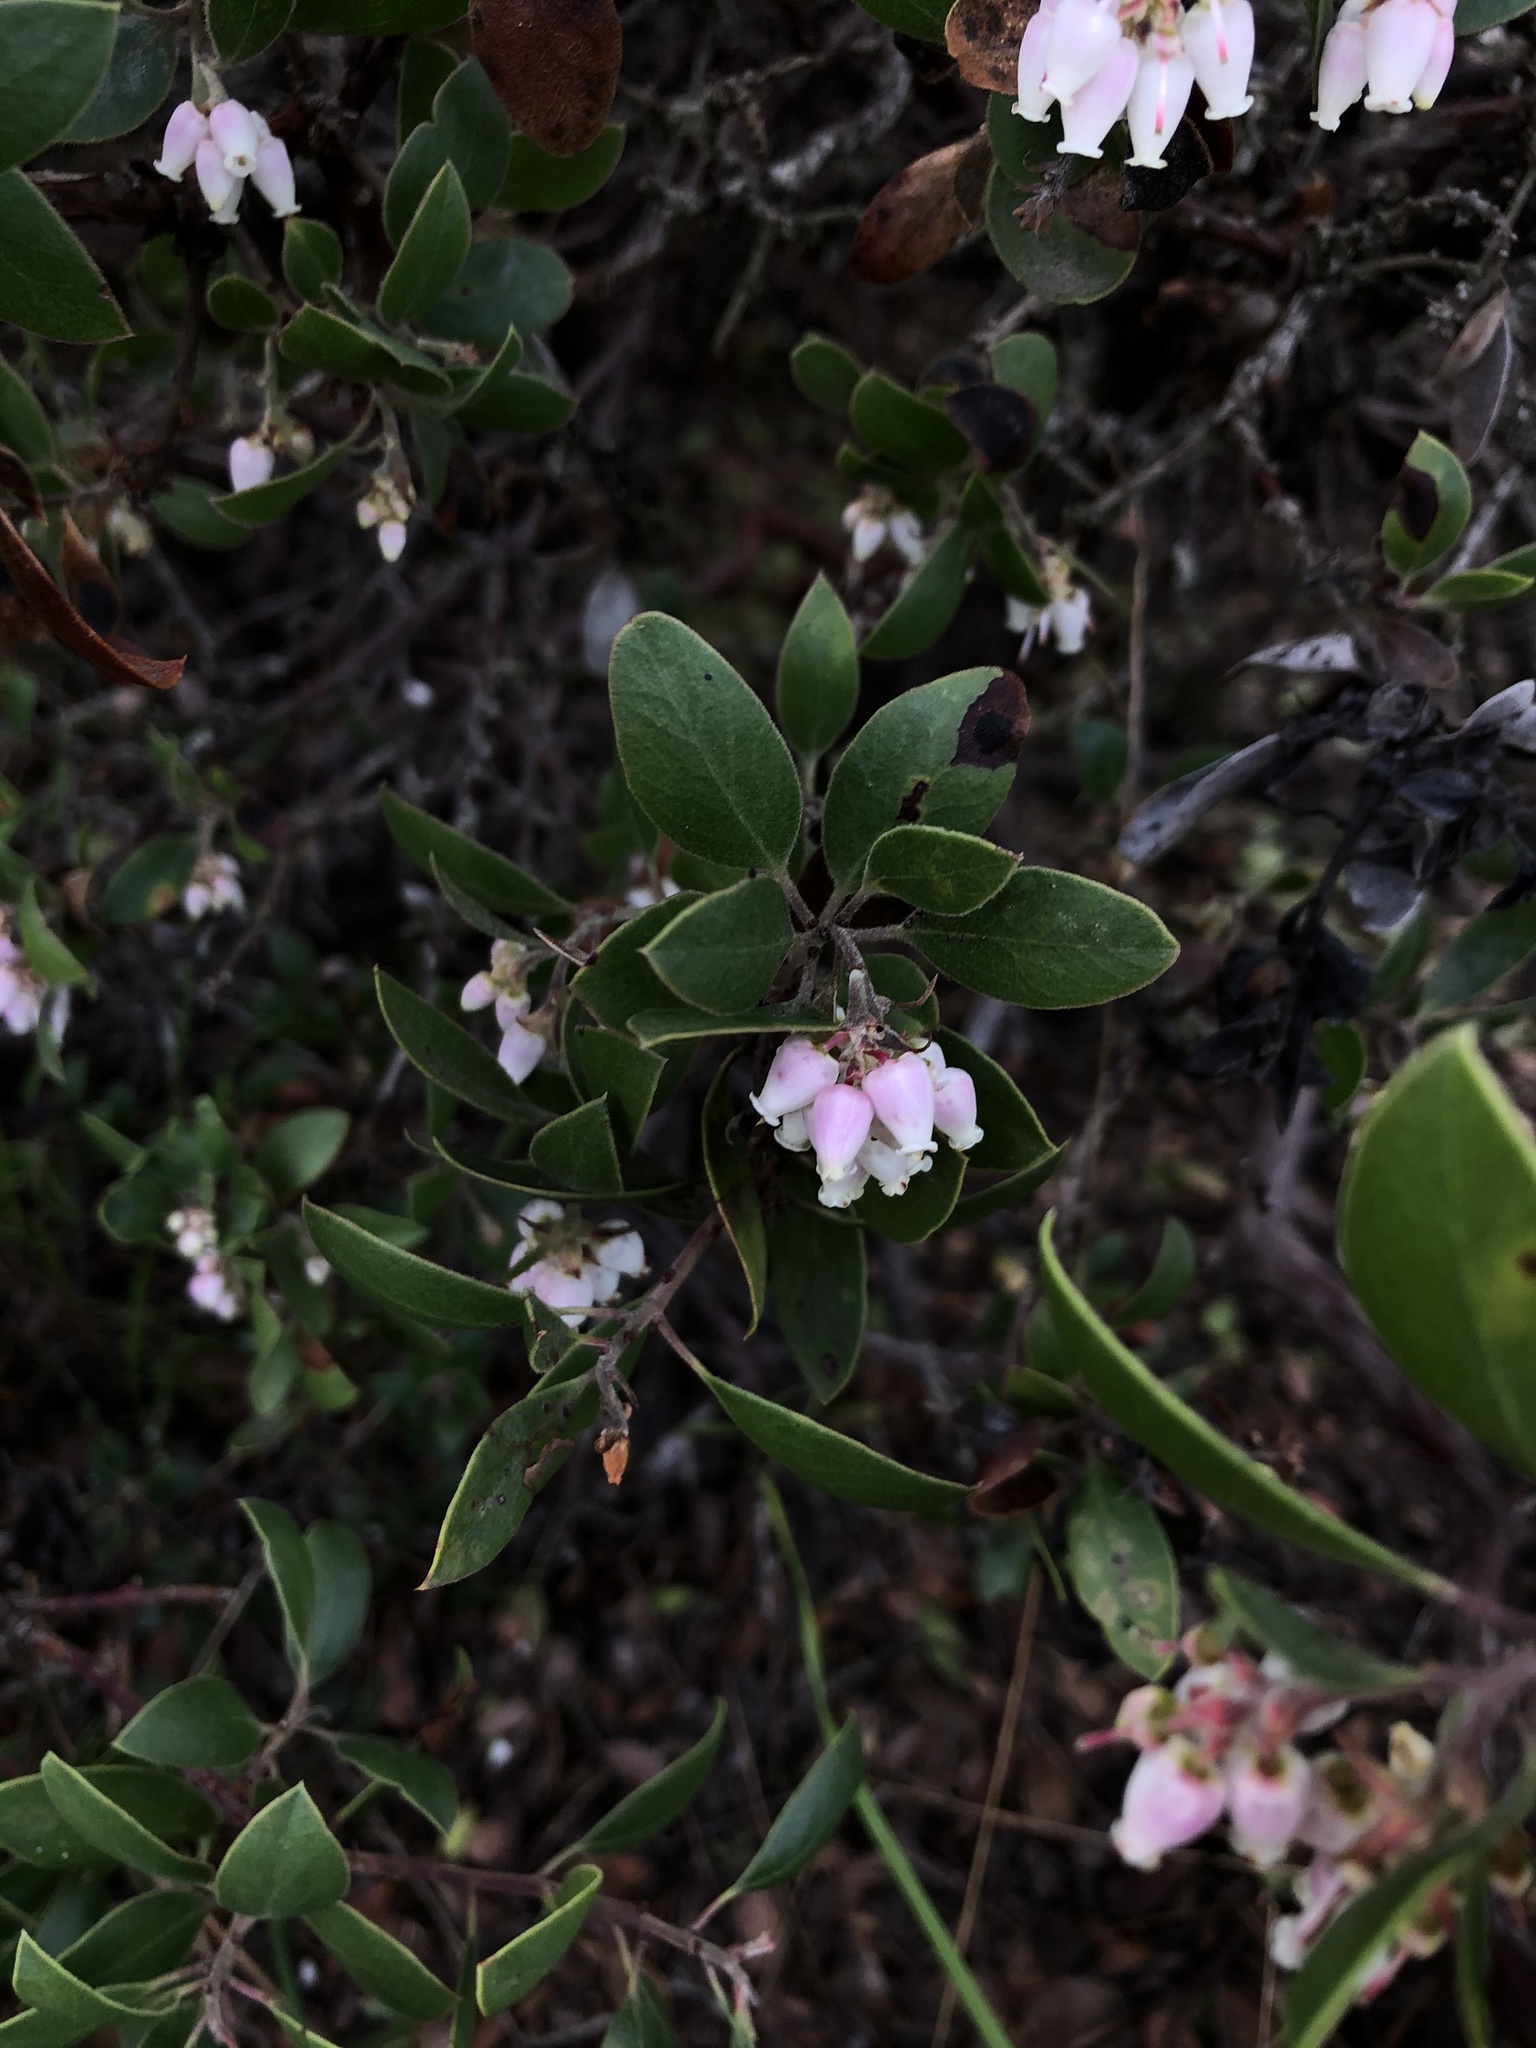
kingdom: Plantae
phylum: Tracheophyta
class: Magnoliopsida
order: Ericales
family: Ericaceae
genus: Arctostaphylos
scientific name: Arctostaphylos rudis
